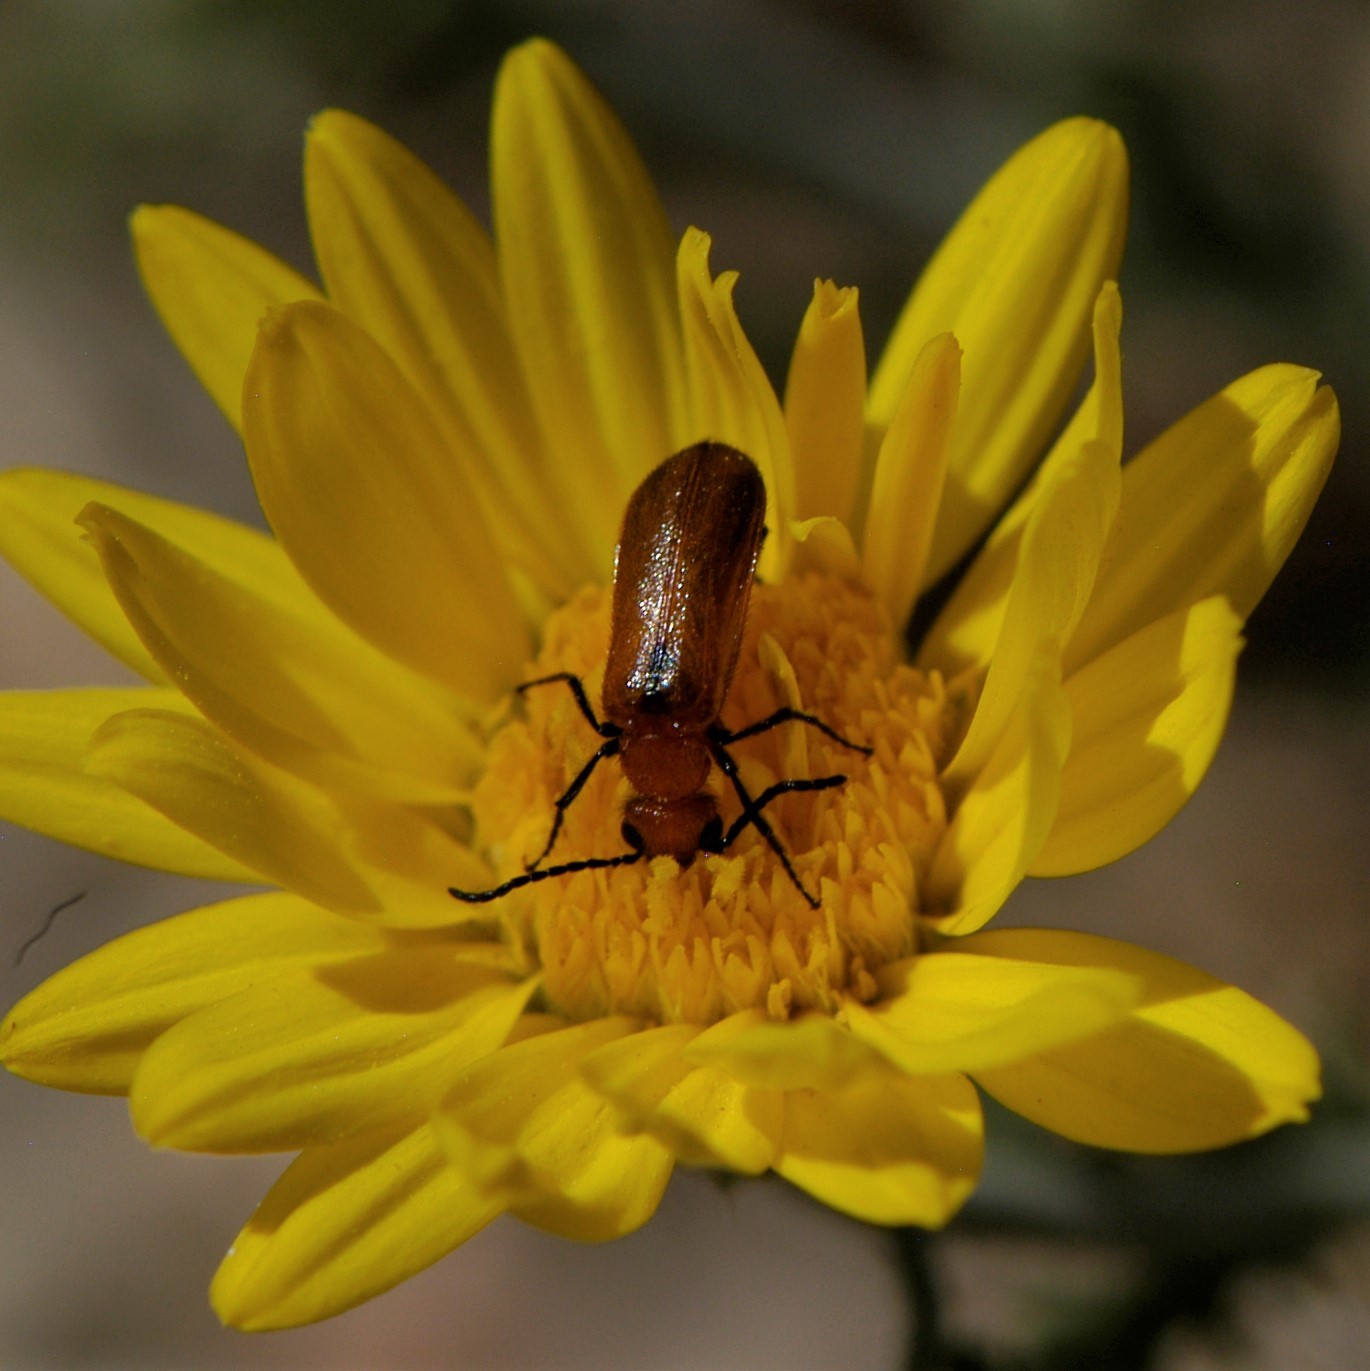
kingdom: Animalia
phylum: Arthropoda
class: Insecta
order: Coleoptera
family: Meloidae
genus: Nemognatha
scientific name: Nemognatha nigripennis
